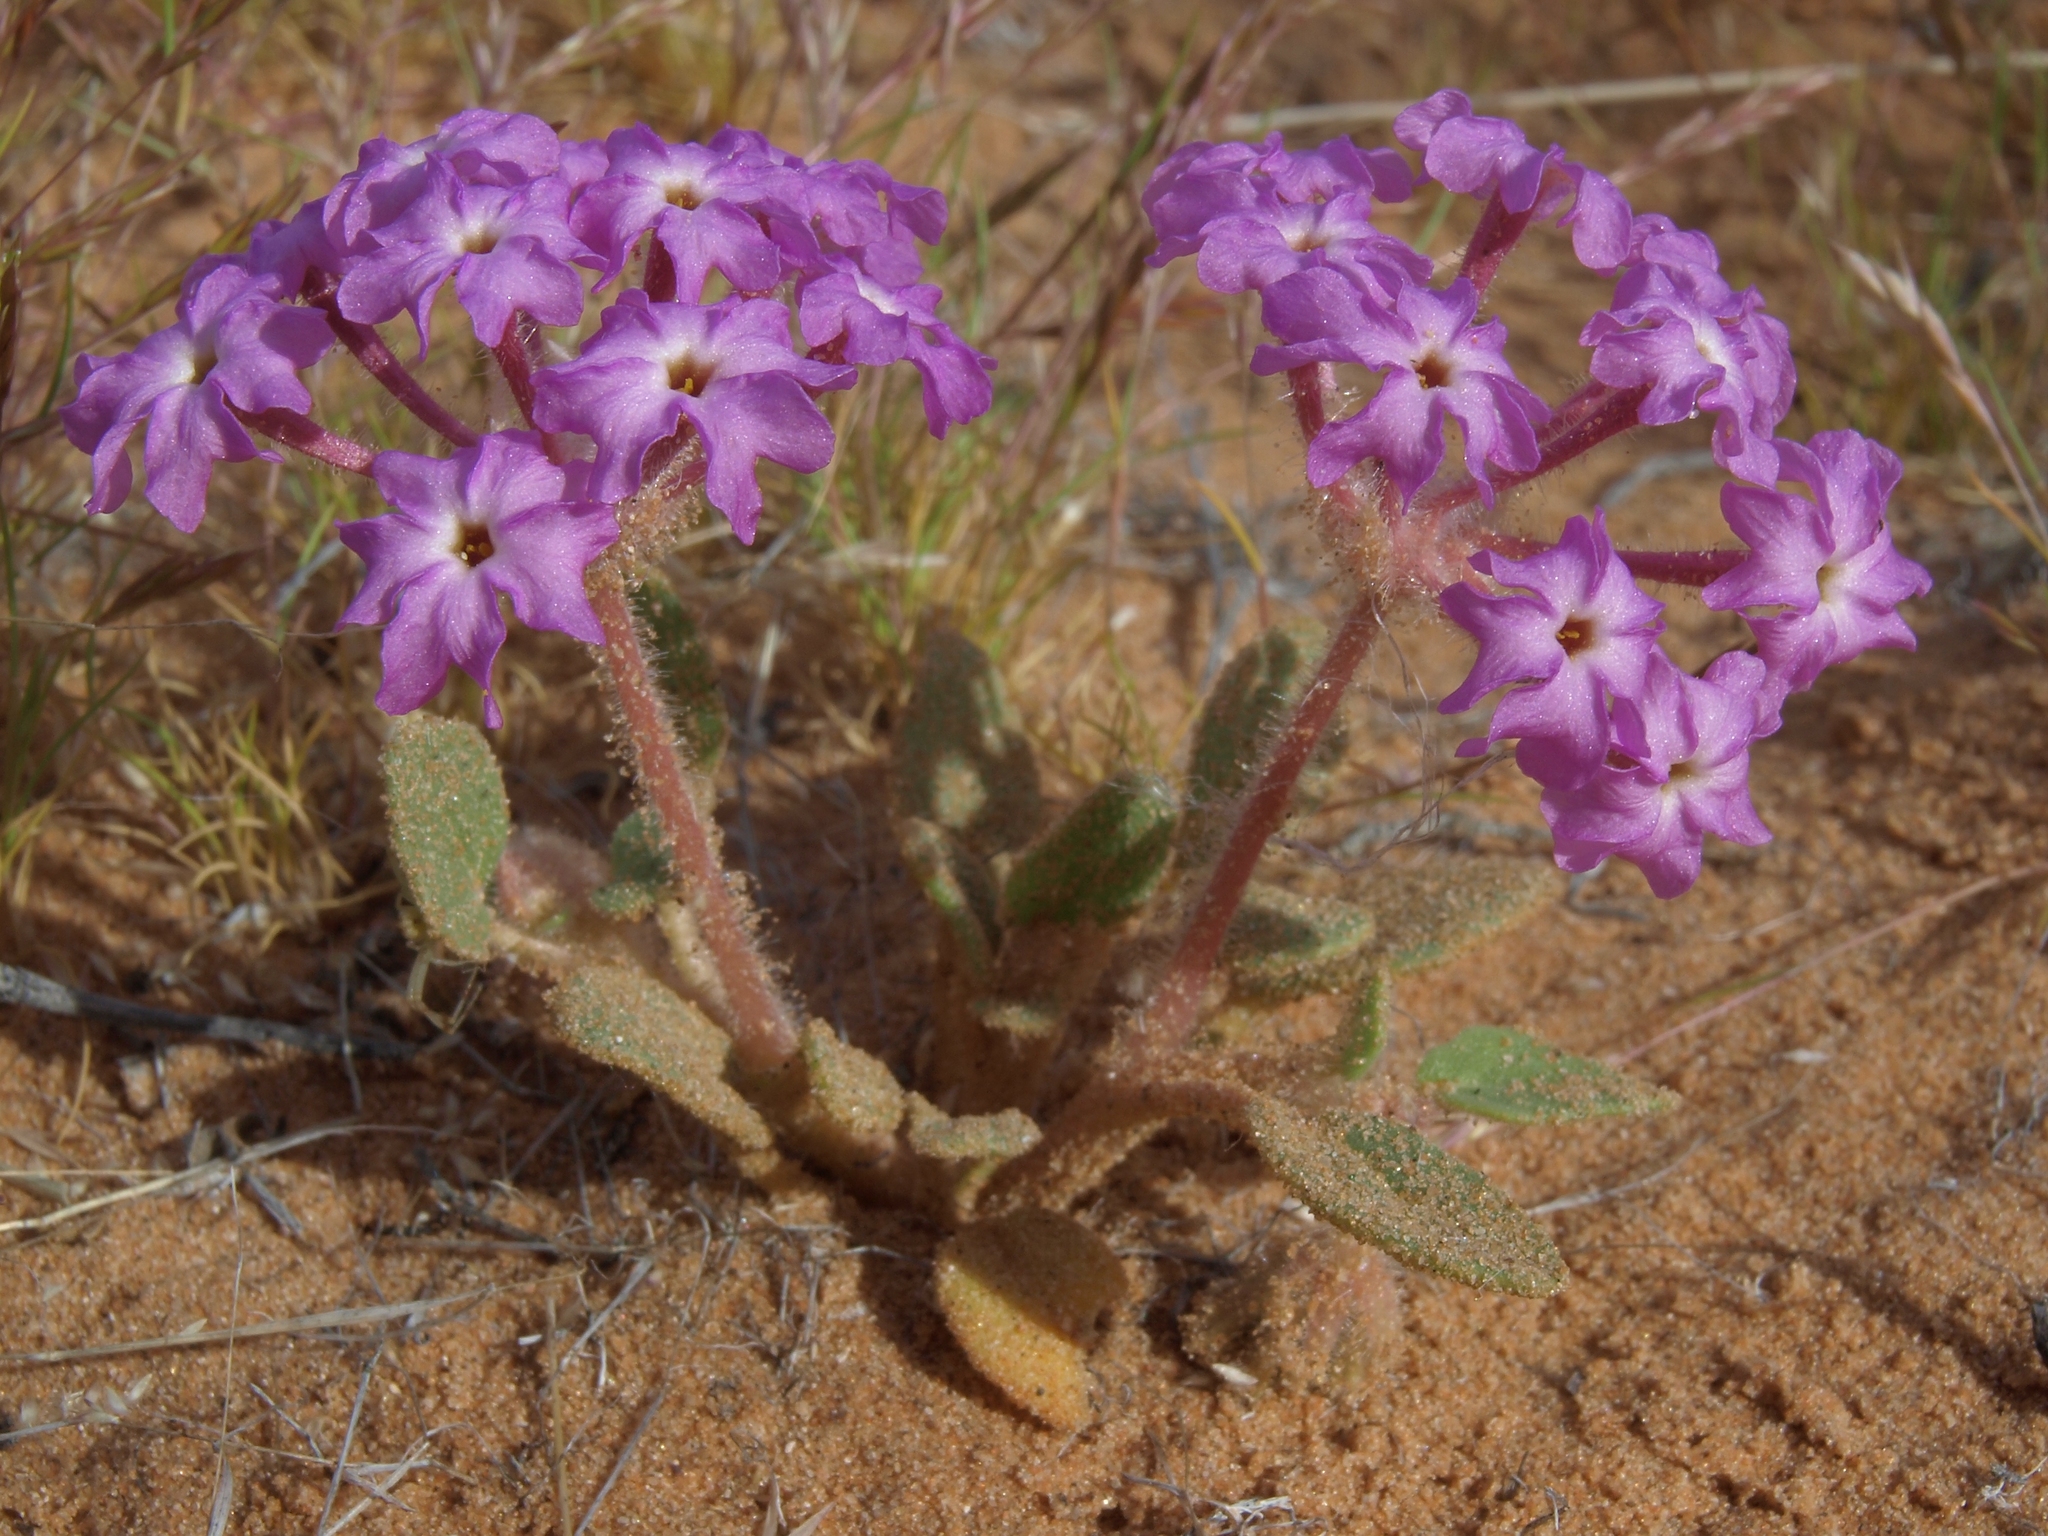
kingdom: Plantae
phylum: Tracheophyta
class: Magnoliopsida
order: Caryophyllales
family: Nyctaginaceae
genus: Abronia
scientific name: Abronia villosa
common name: Desert sand-verbena
